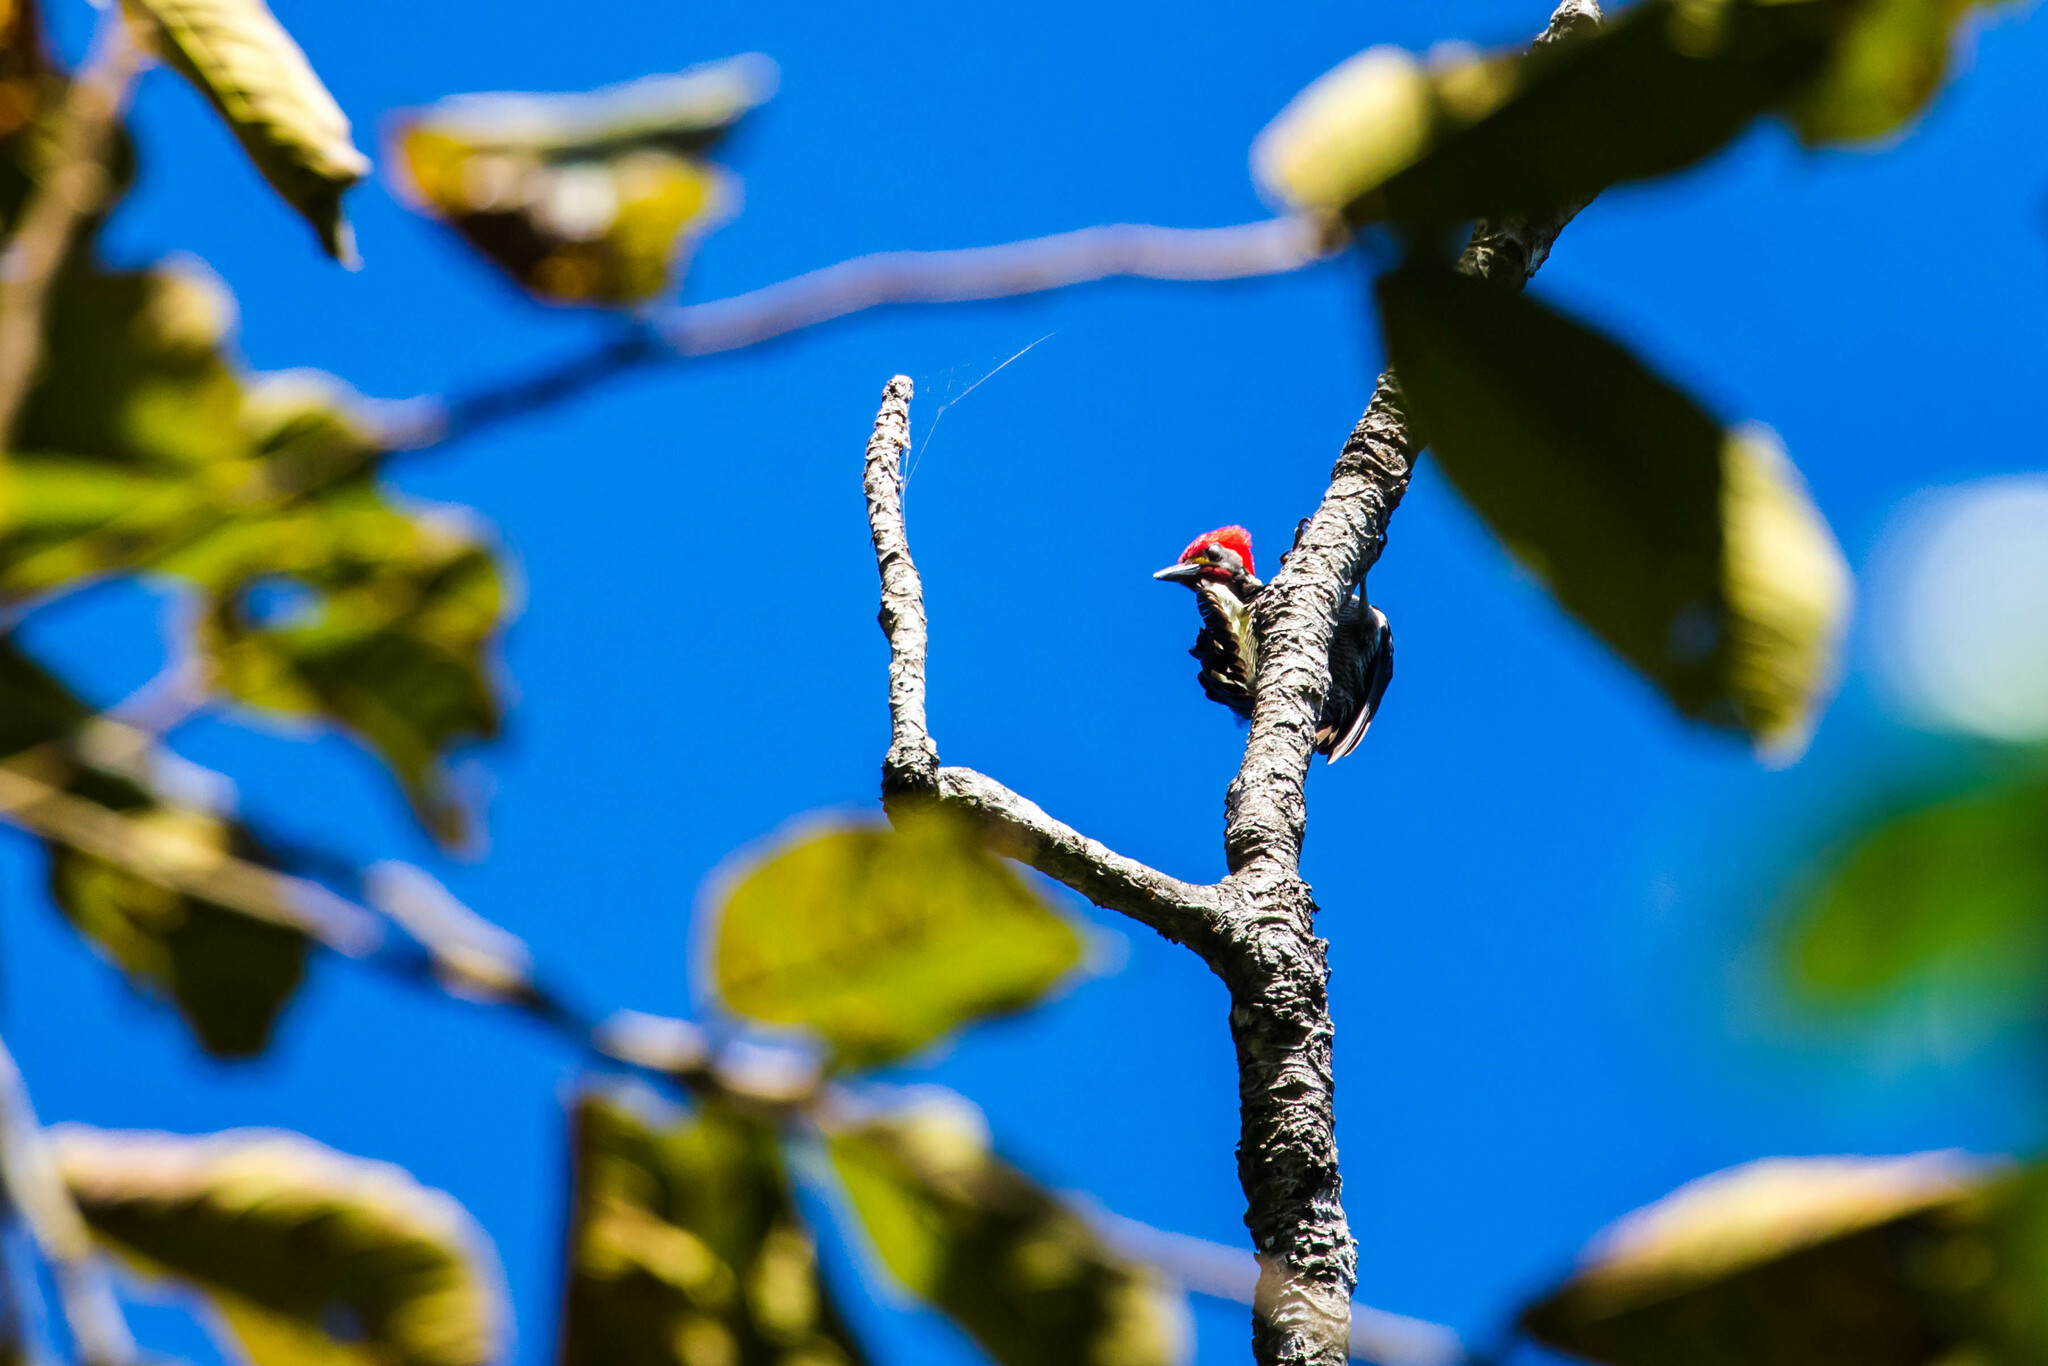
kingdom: Animalia
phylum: Chordata
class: Aves
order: Piciformes
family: Picidae
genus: Dryocopus
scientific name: Dryocopus lineatus
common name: Lineated woodpecker
